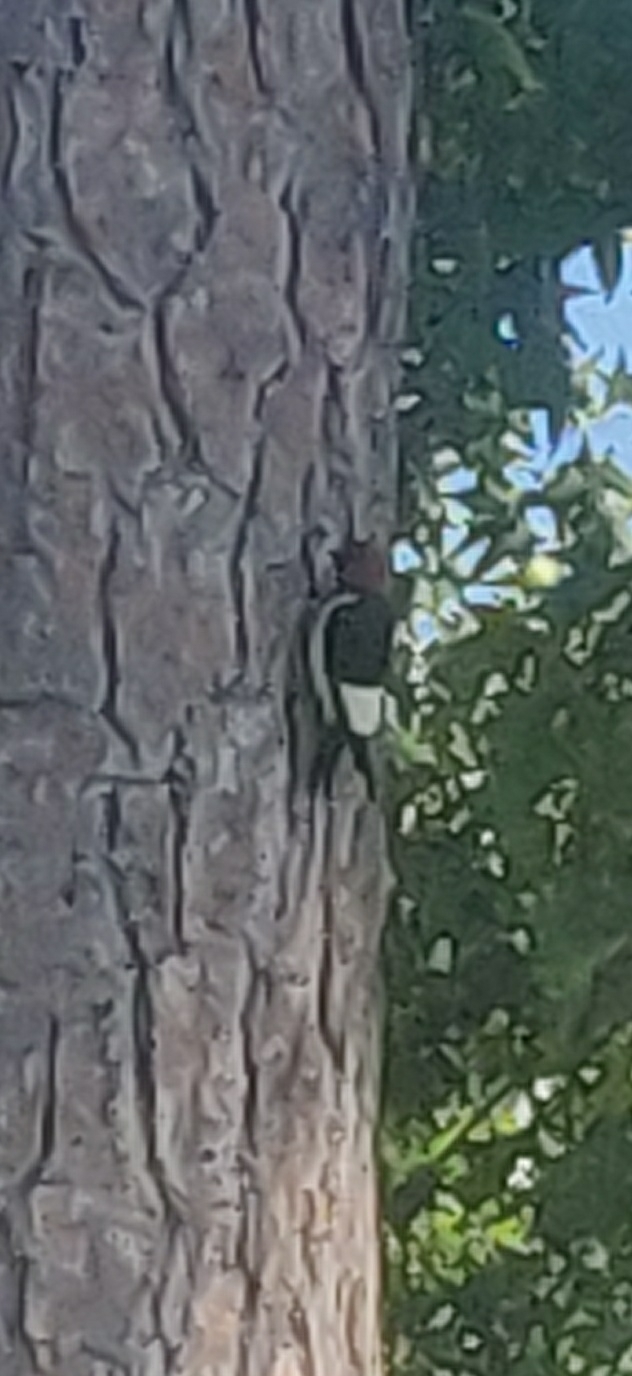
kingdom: Animalia
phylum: Chordata
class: Aves
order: Piciformes
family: Picidae
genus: Melanerpes
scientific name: Melanerpes erythrocephalus
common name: Red-headed woodpecker
